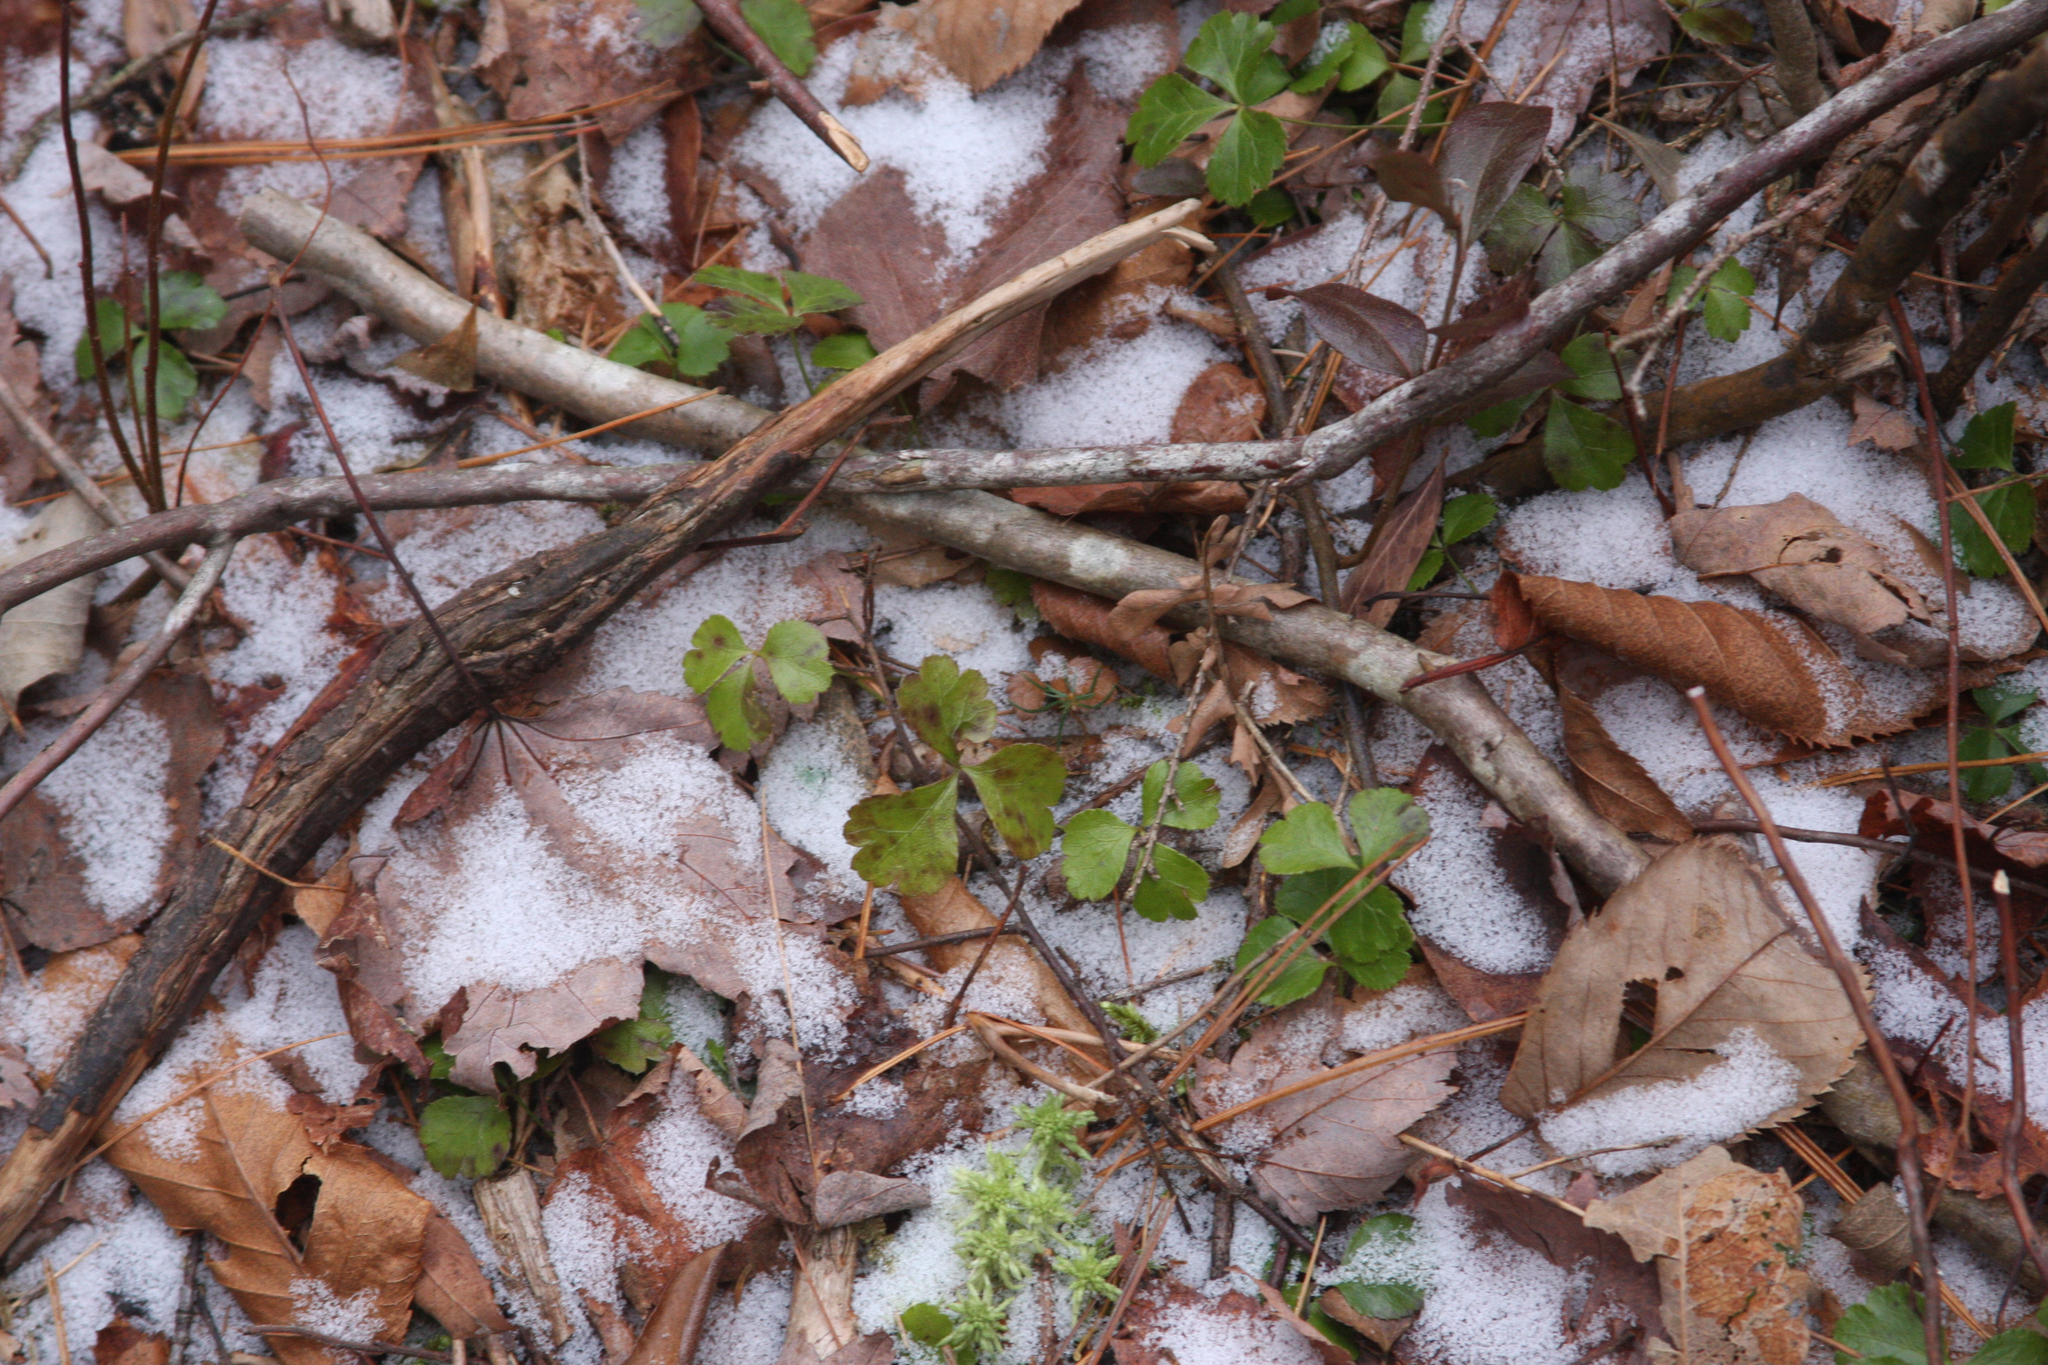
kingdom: Plantae
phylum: Tracheophyta
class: Magnoliopsida
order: Ranunculales
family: Ranunculaceae
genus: Coptis
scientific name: Coptis trifolia
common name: Canker-root
